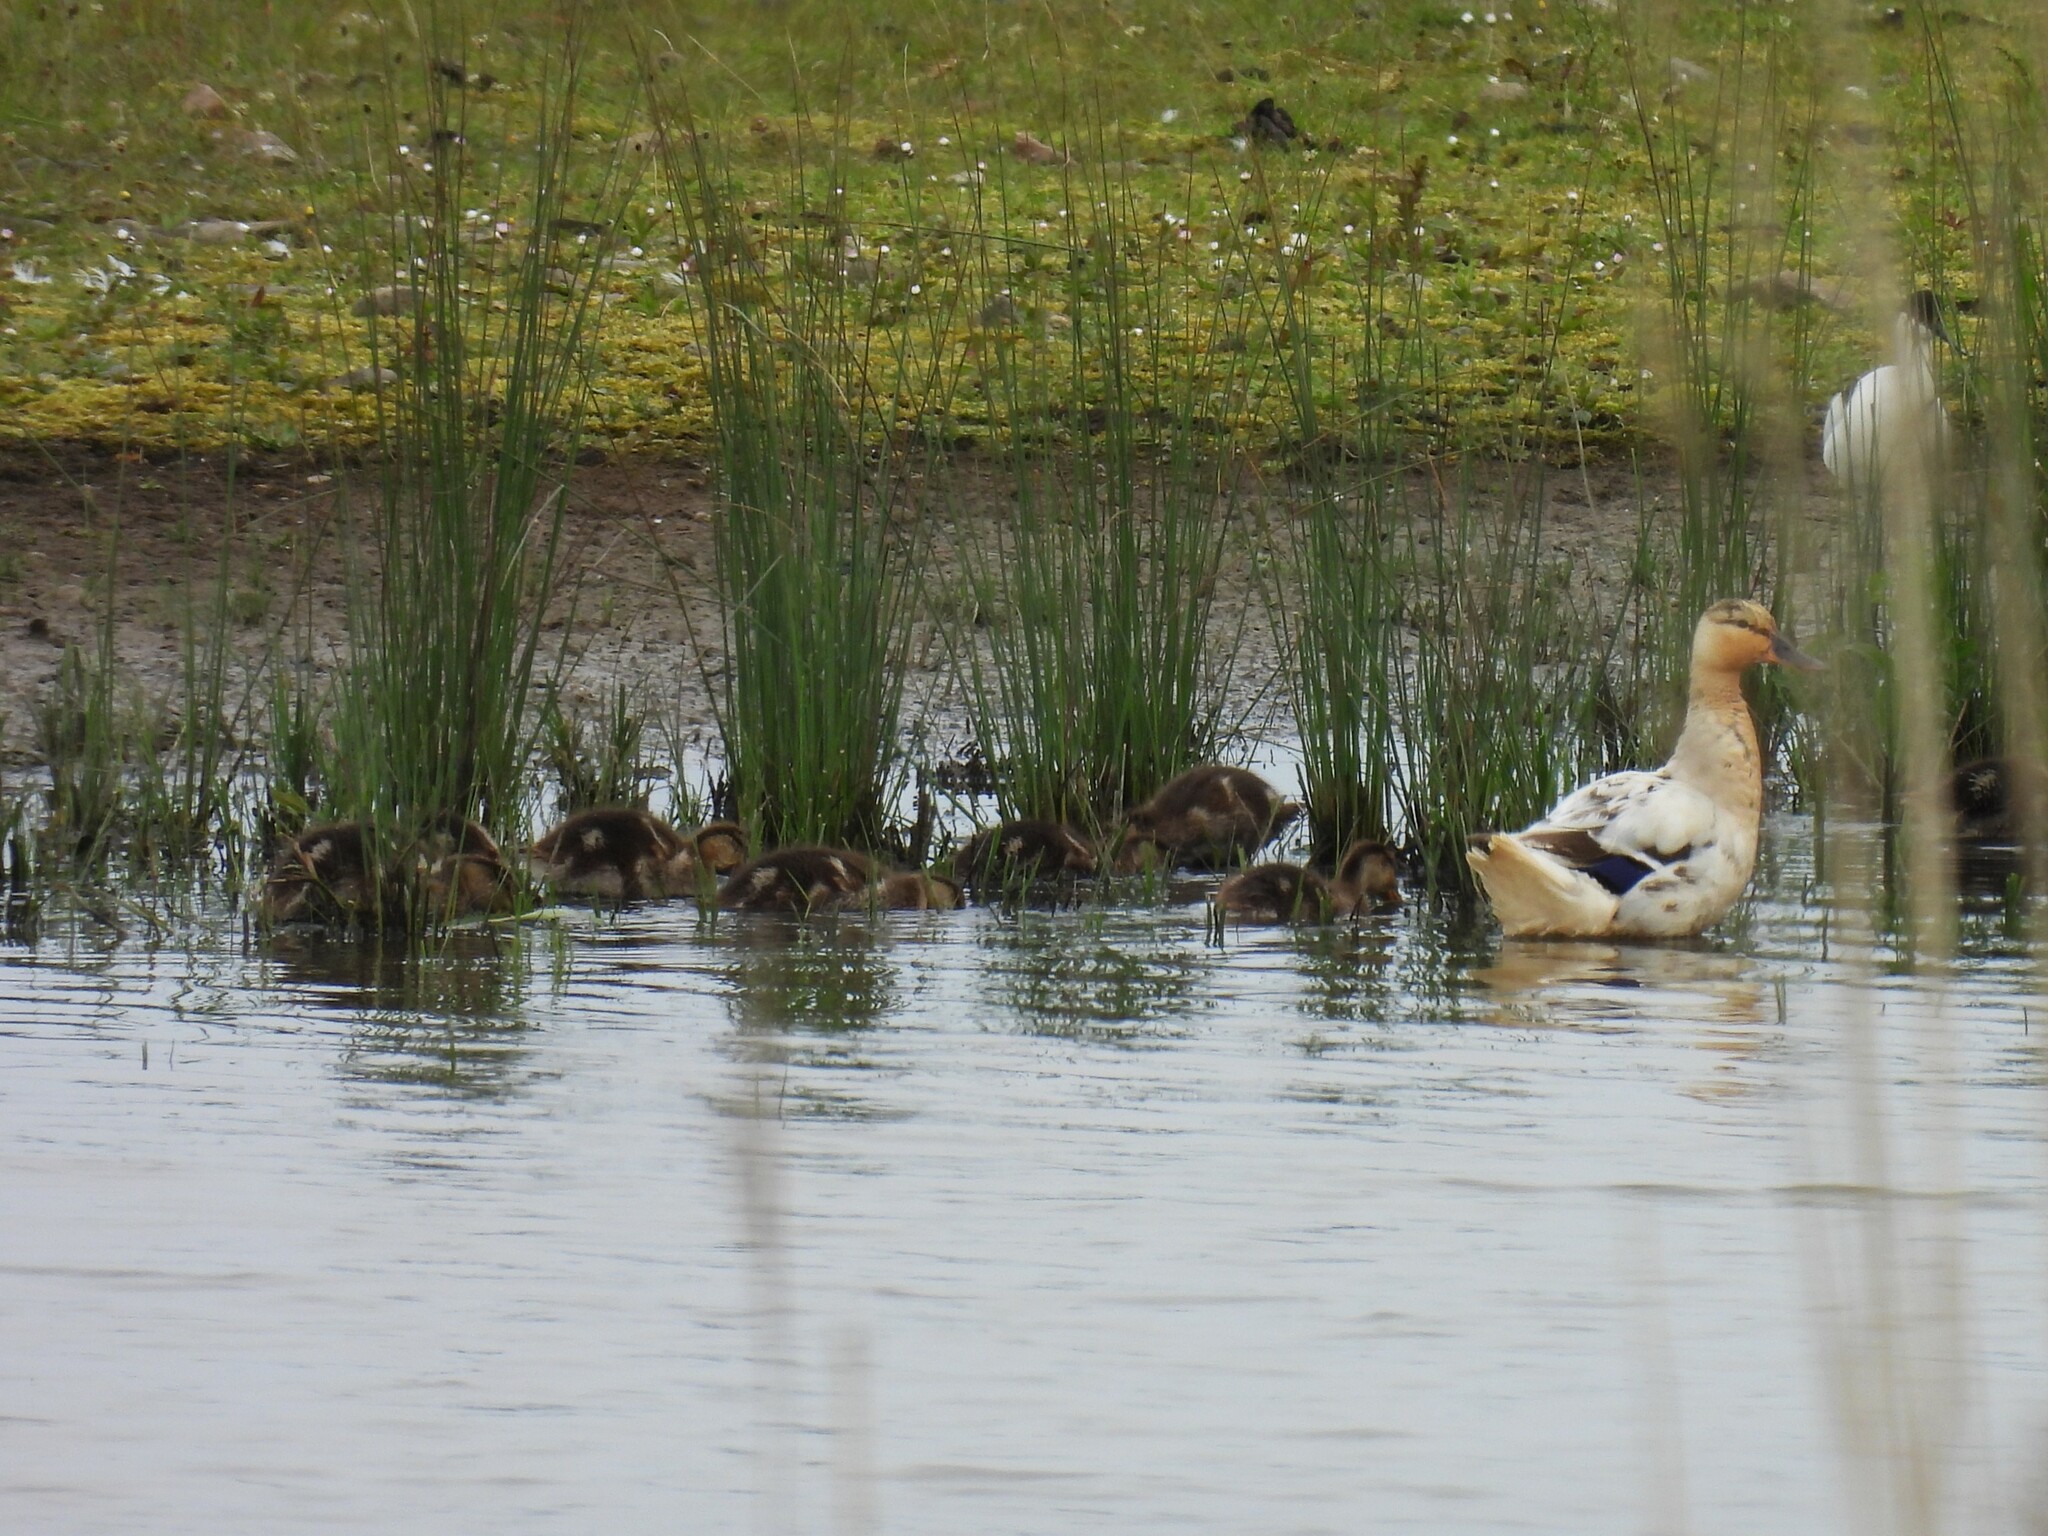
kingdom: Animalia
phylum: Chordata
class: Aves
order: Anseriformes
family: Anatidae
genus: Anas
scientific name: Anas platyrhynchos
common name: Mallard
